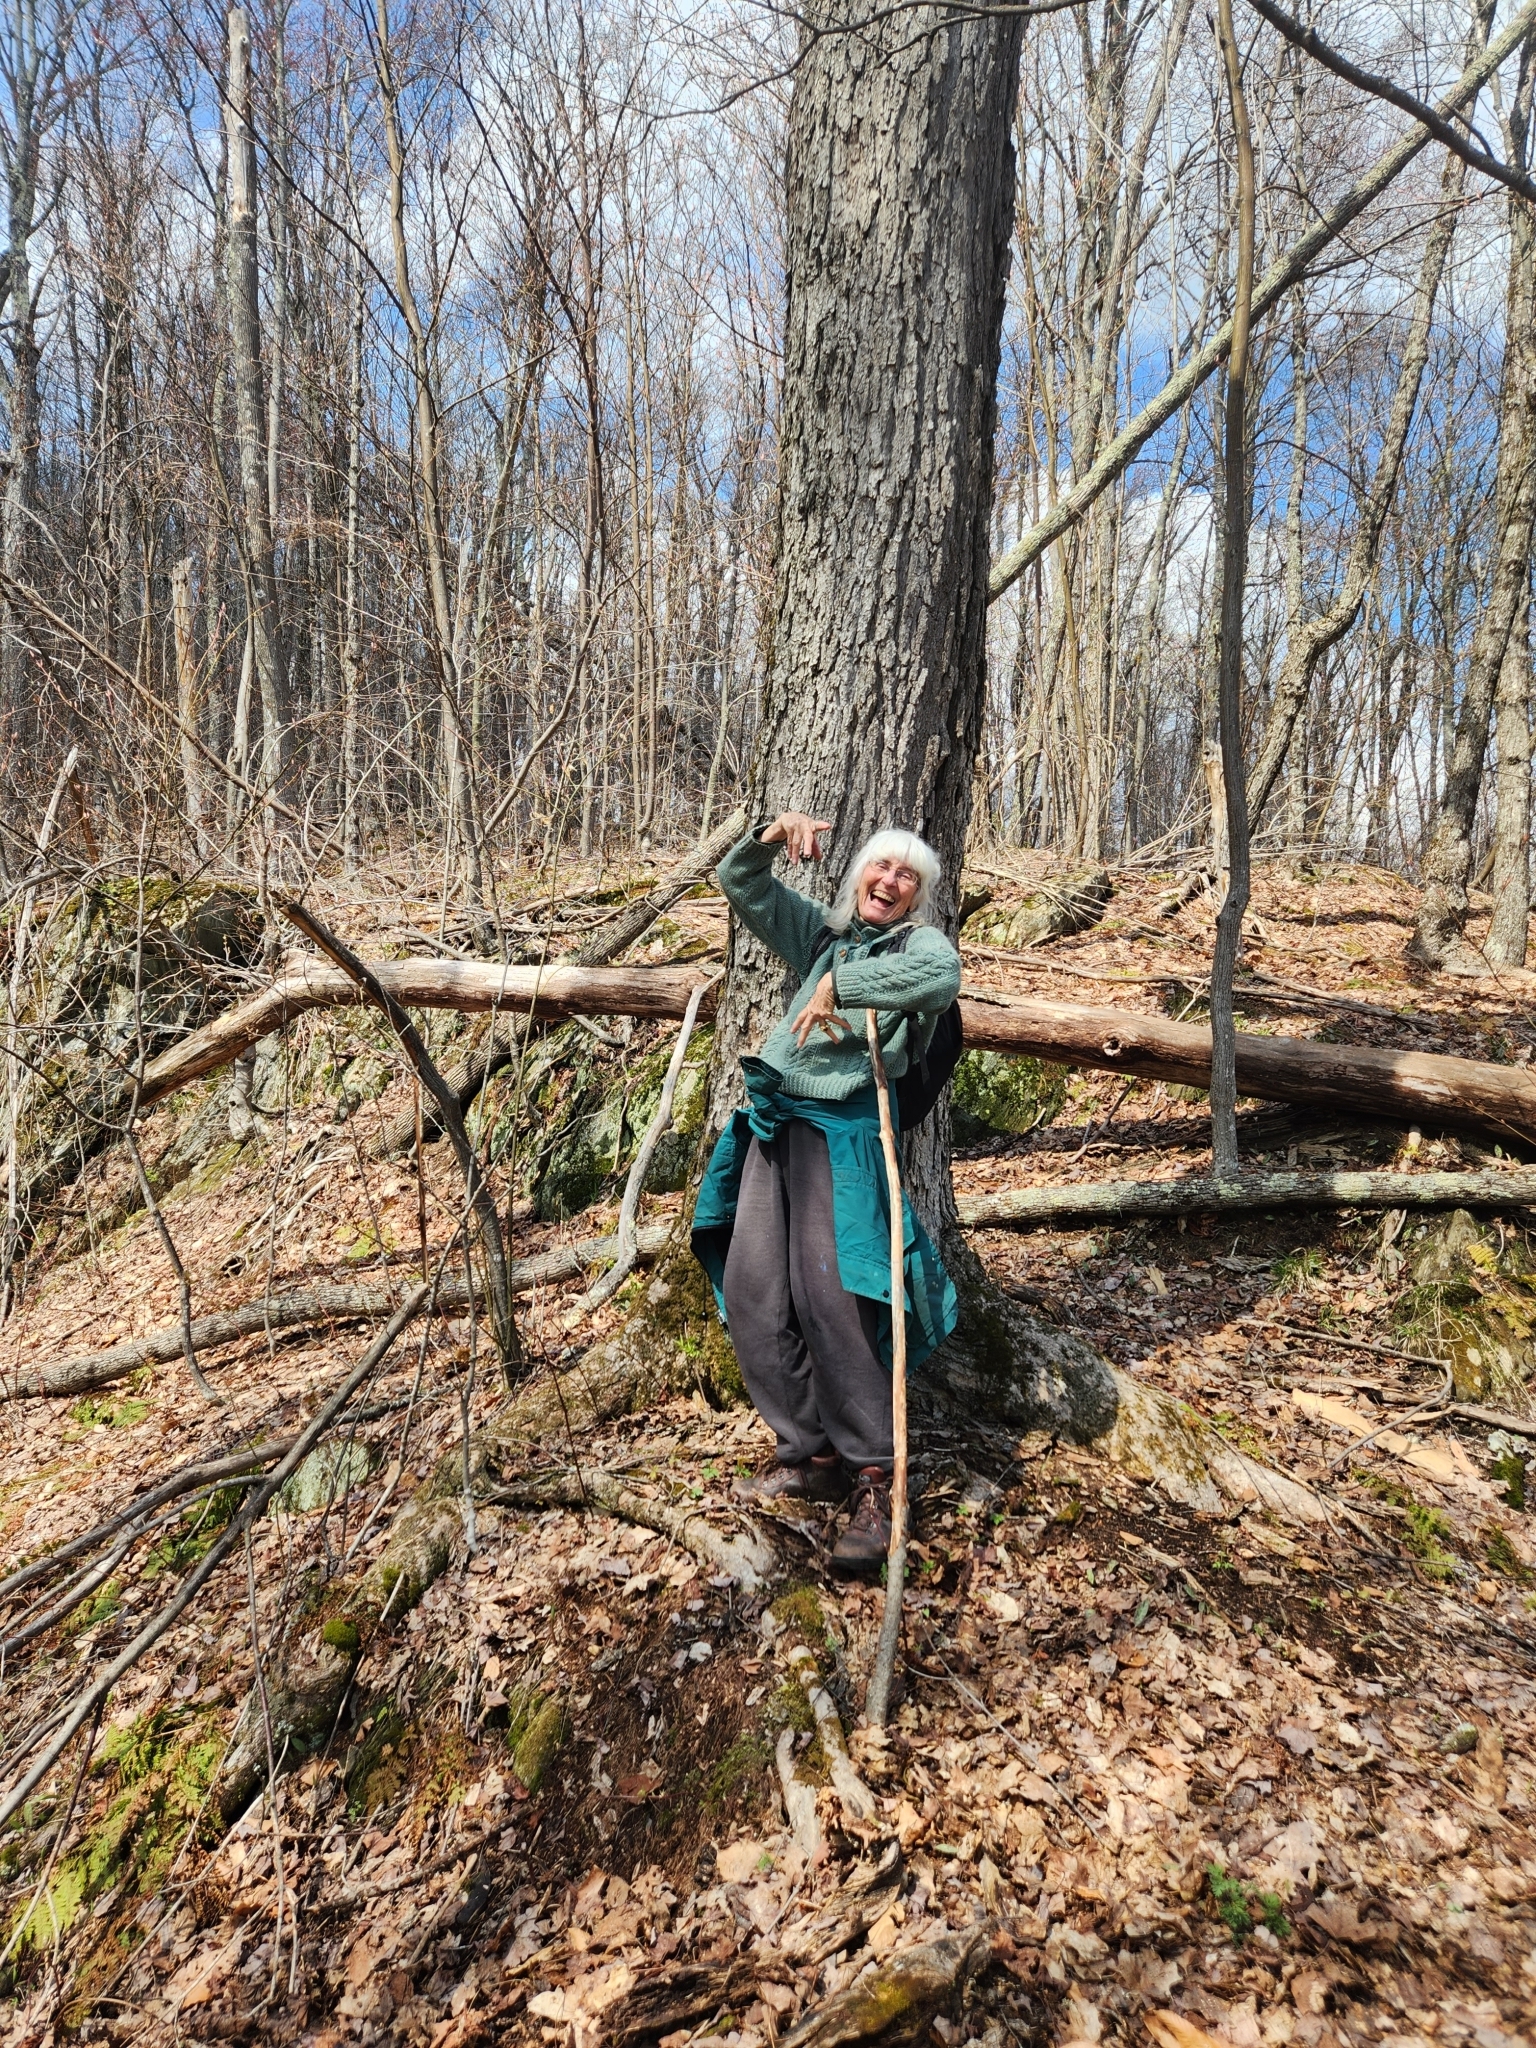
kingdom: Plantae
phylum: Tracheophyta
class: Magnoliopsida
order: Sapindales
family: Sapindaceae
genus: Acer
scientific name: Acer saccharum
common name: Sugar maple
